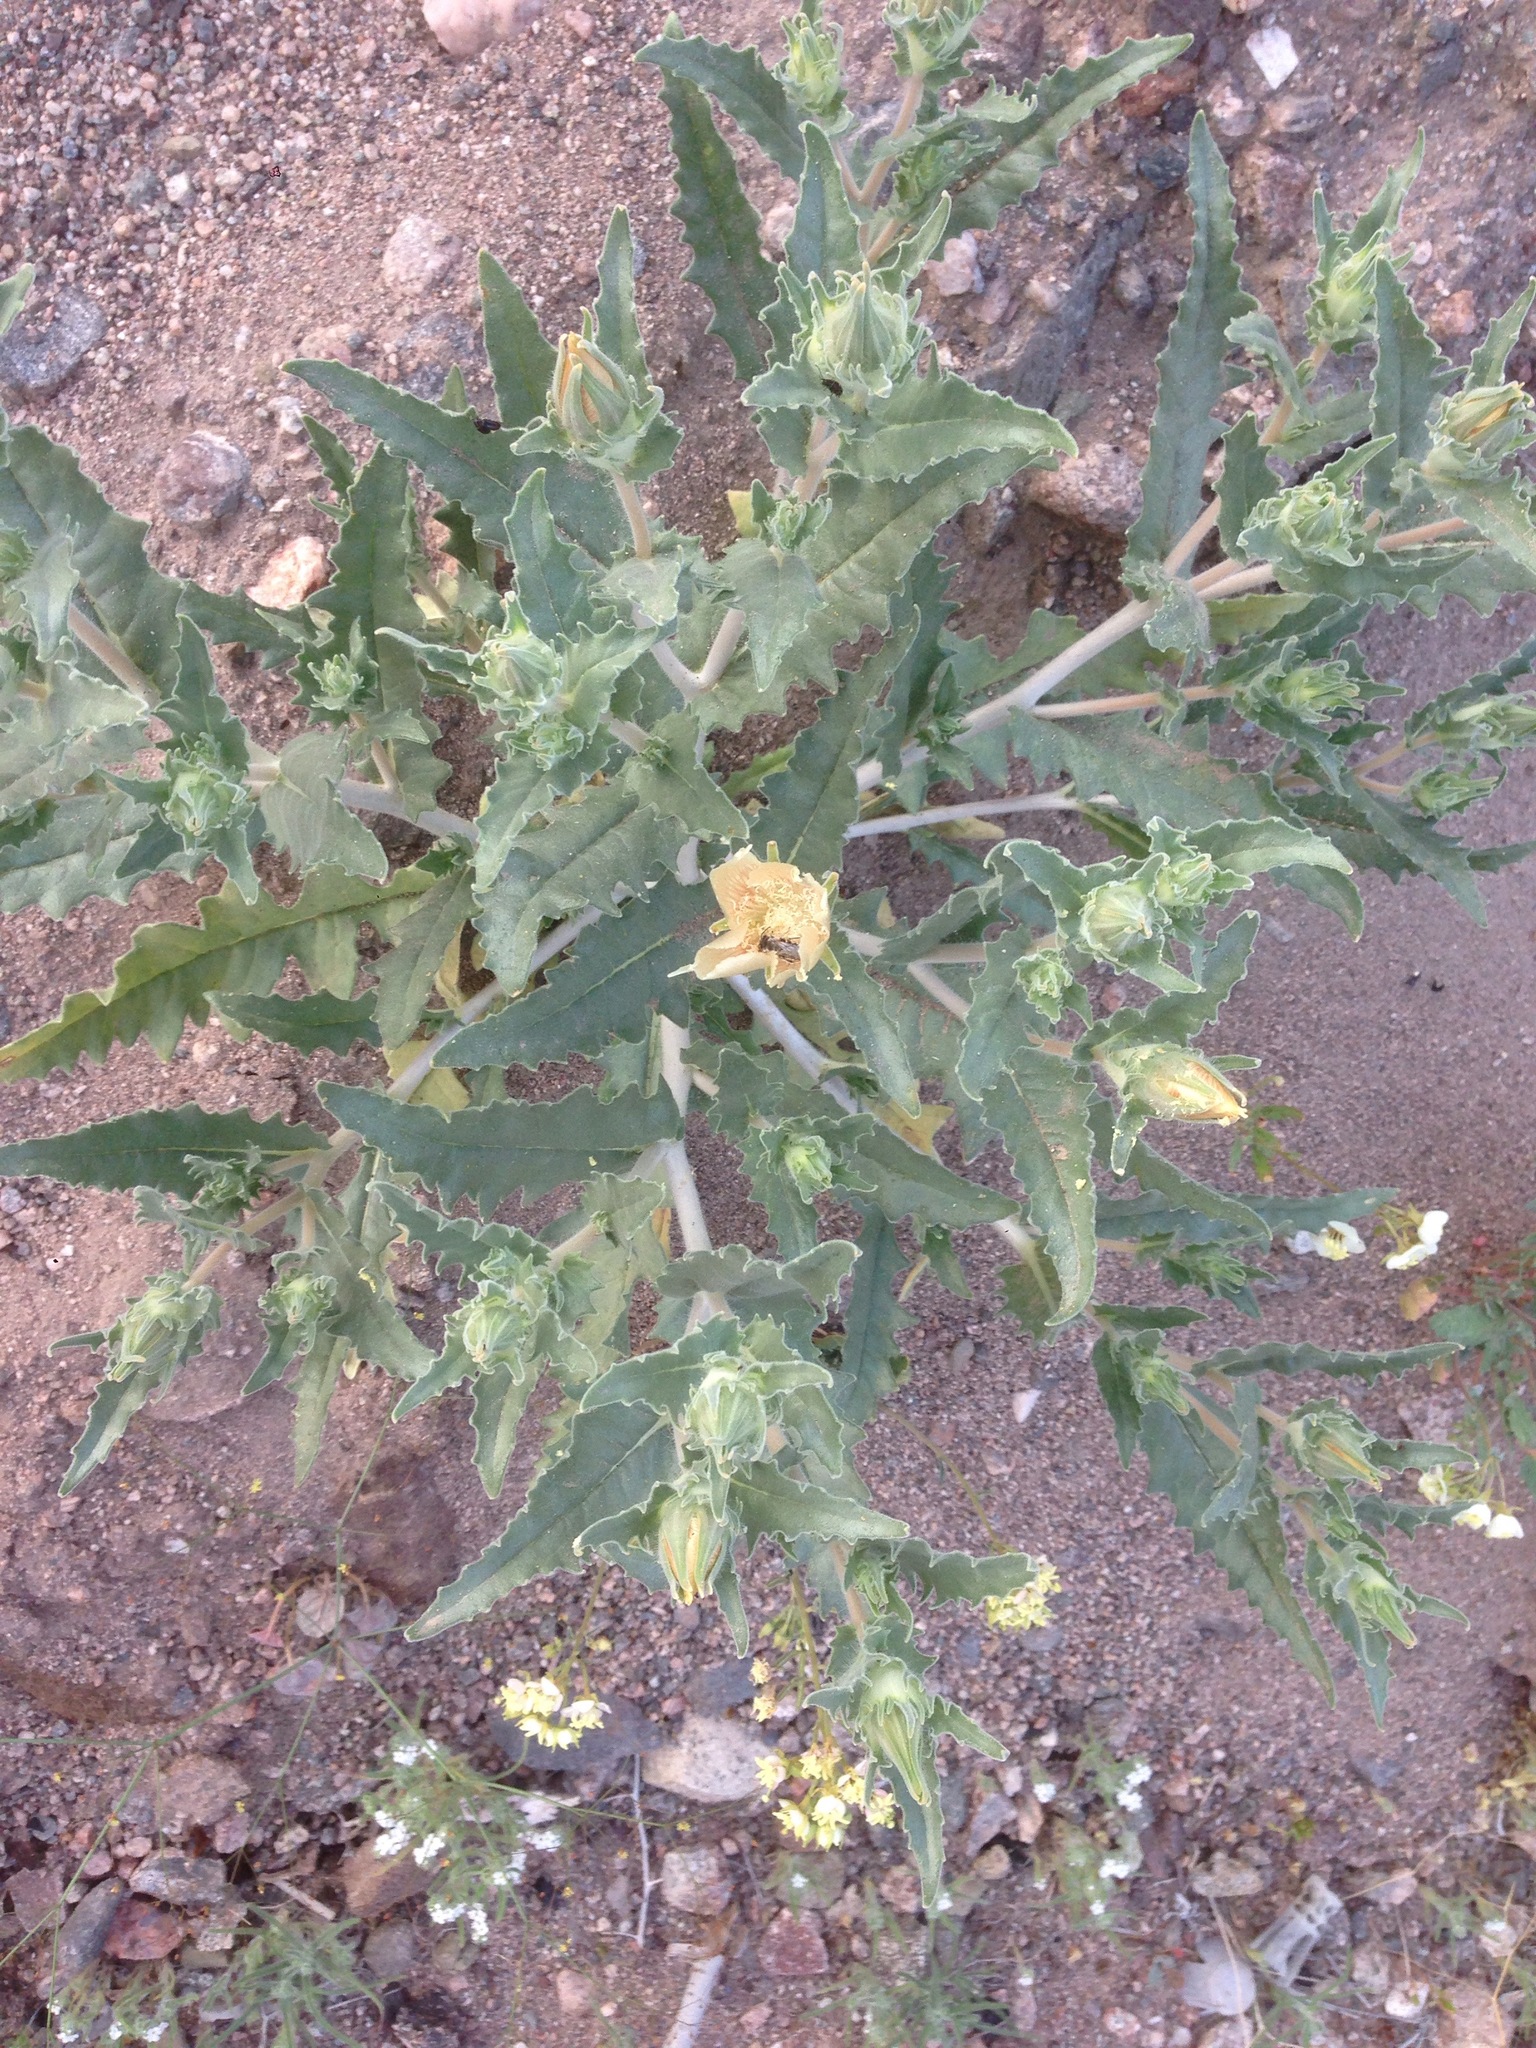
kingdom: Plantae
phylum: Tracheophyta
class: Magnoliopsida
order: Cornales
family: Loasaceae
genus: Mentzelia
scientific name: Mentzelia involucrata
